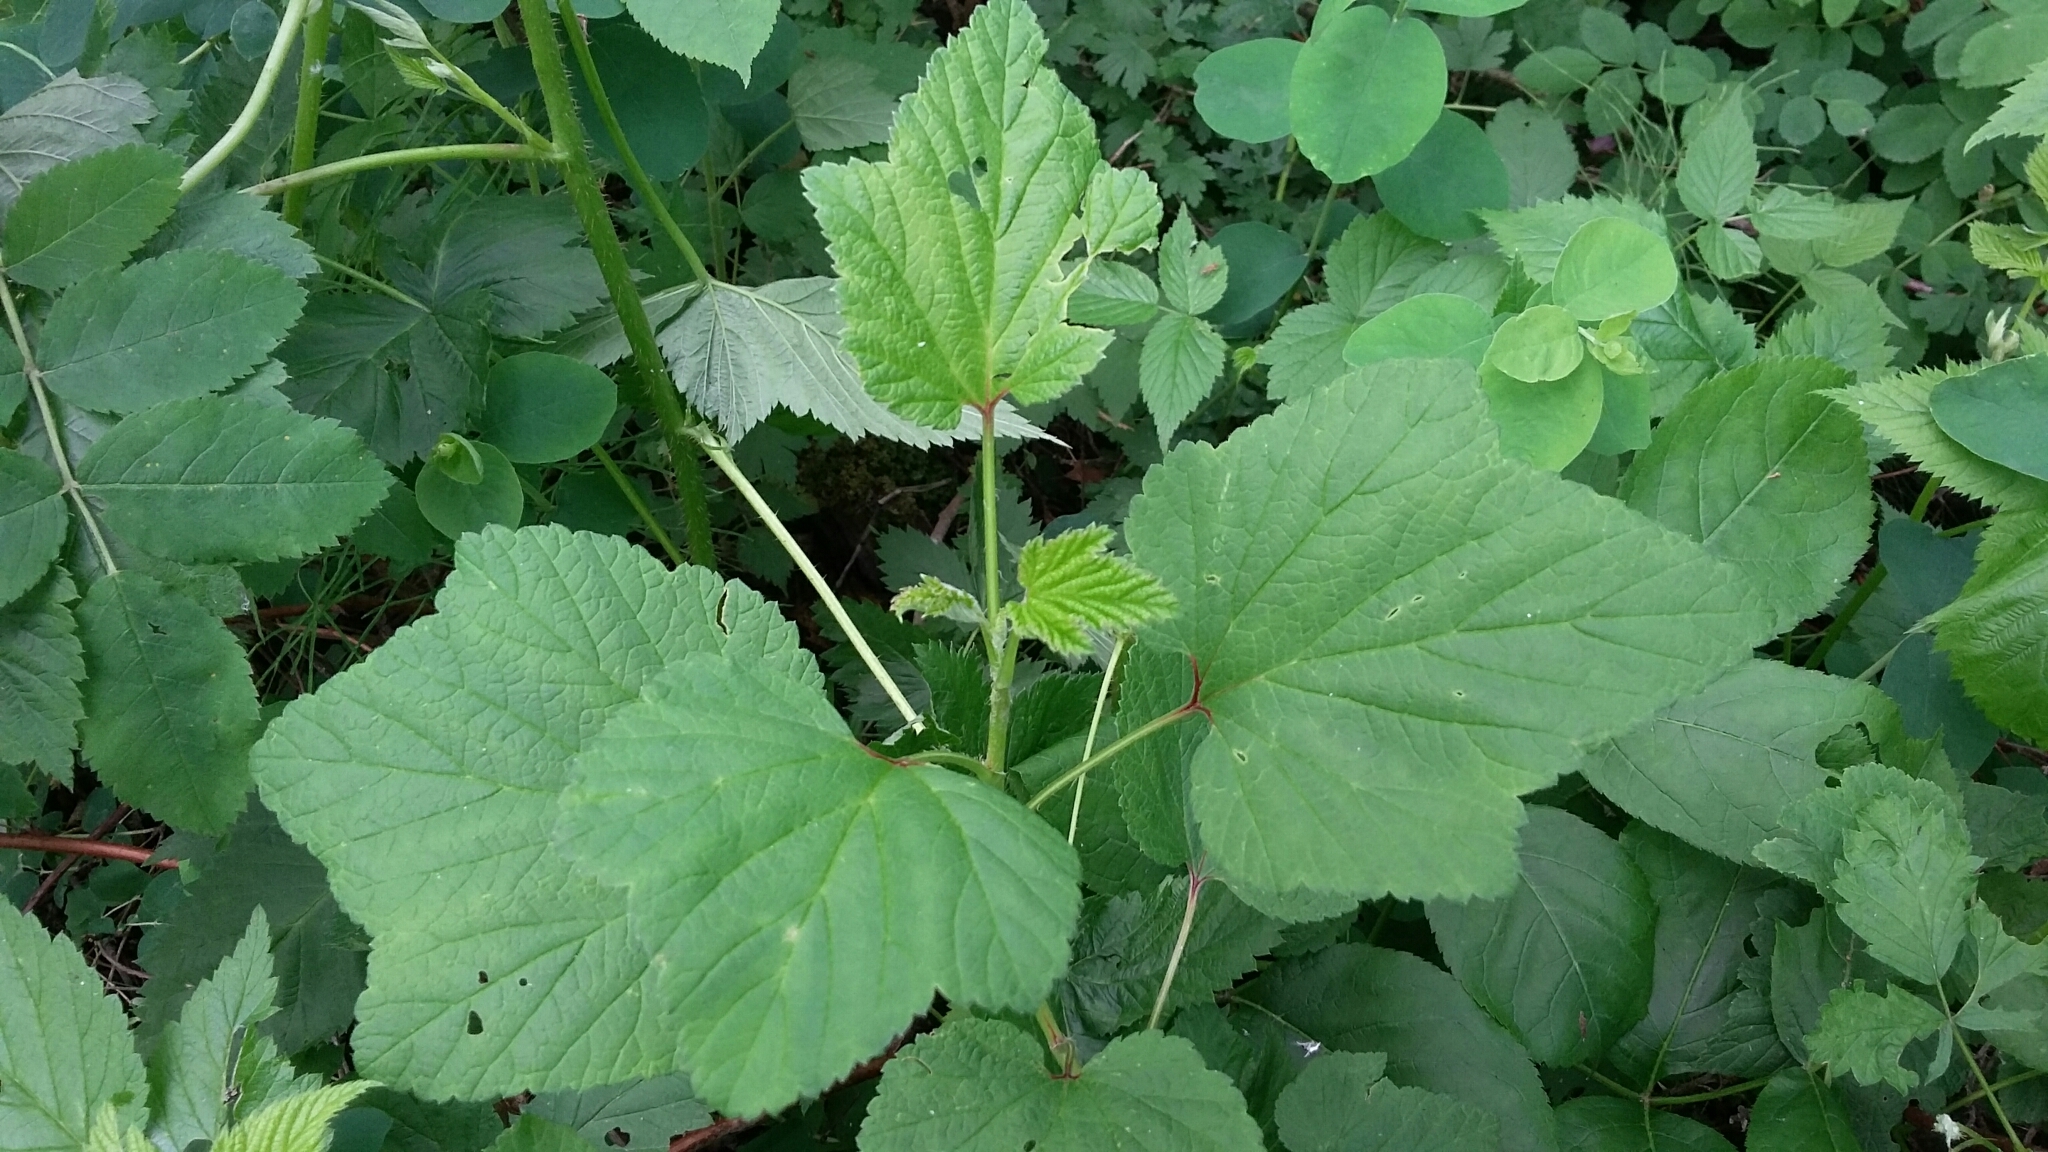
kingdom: Plantae
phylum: Tracheophyta
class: Magnoliopsida
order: Saxifragales
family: Grossulariaceae
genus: Ribes
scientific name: Ribes triste
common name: Swamp red currant
